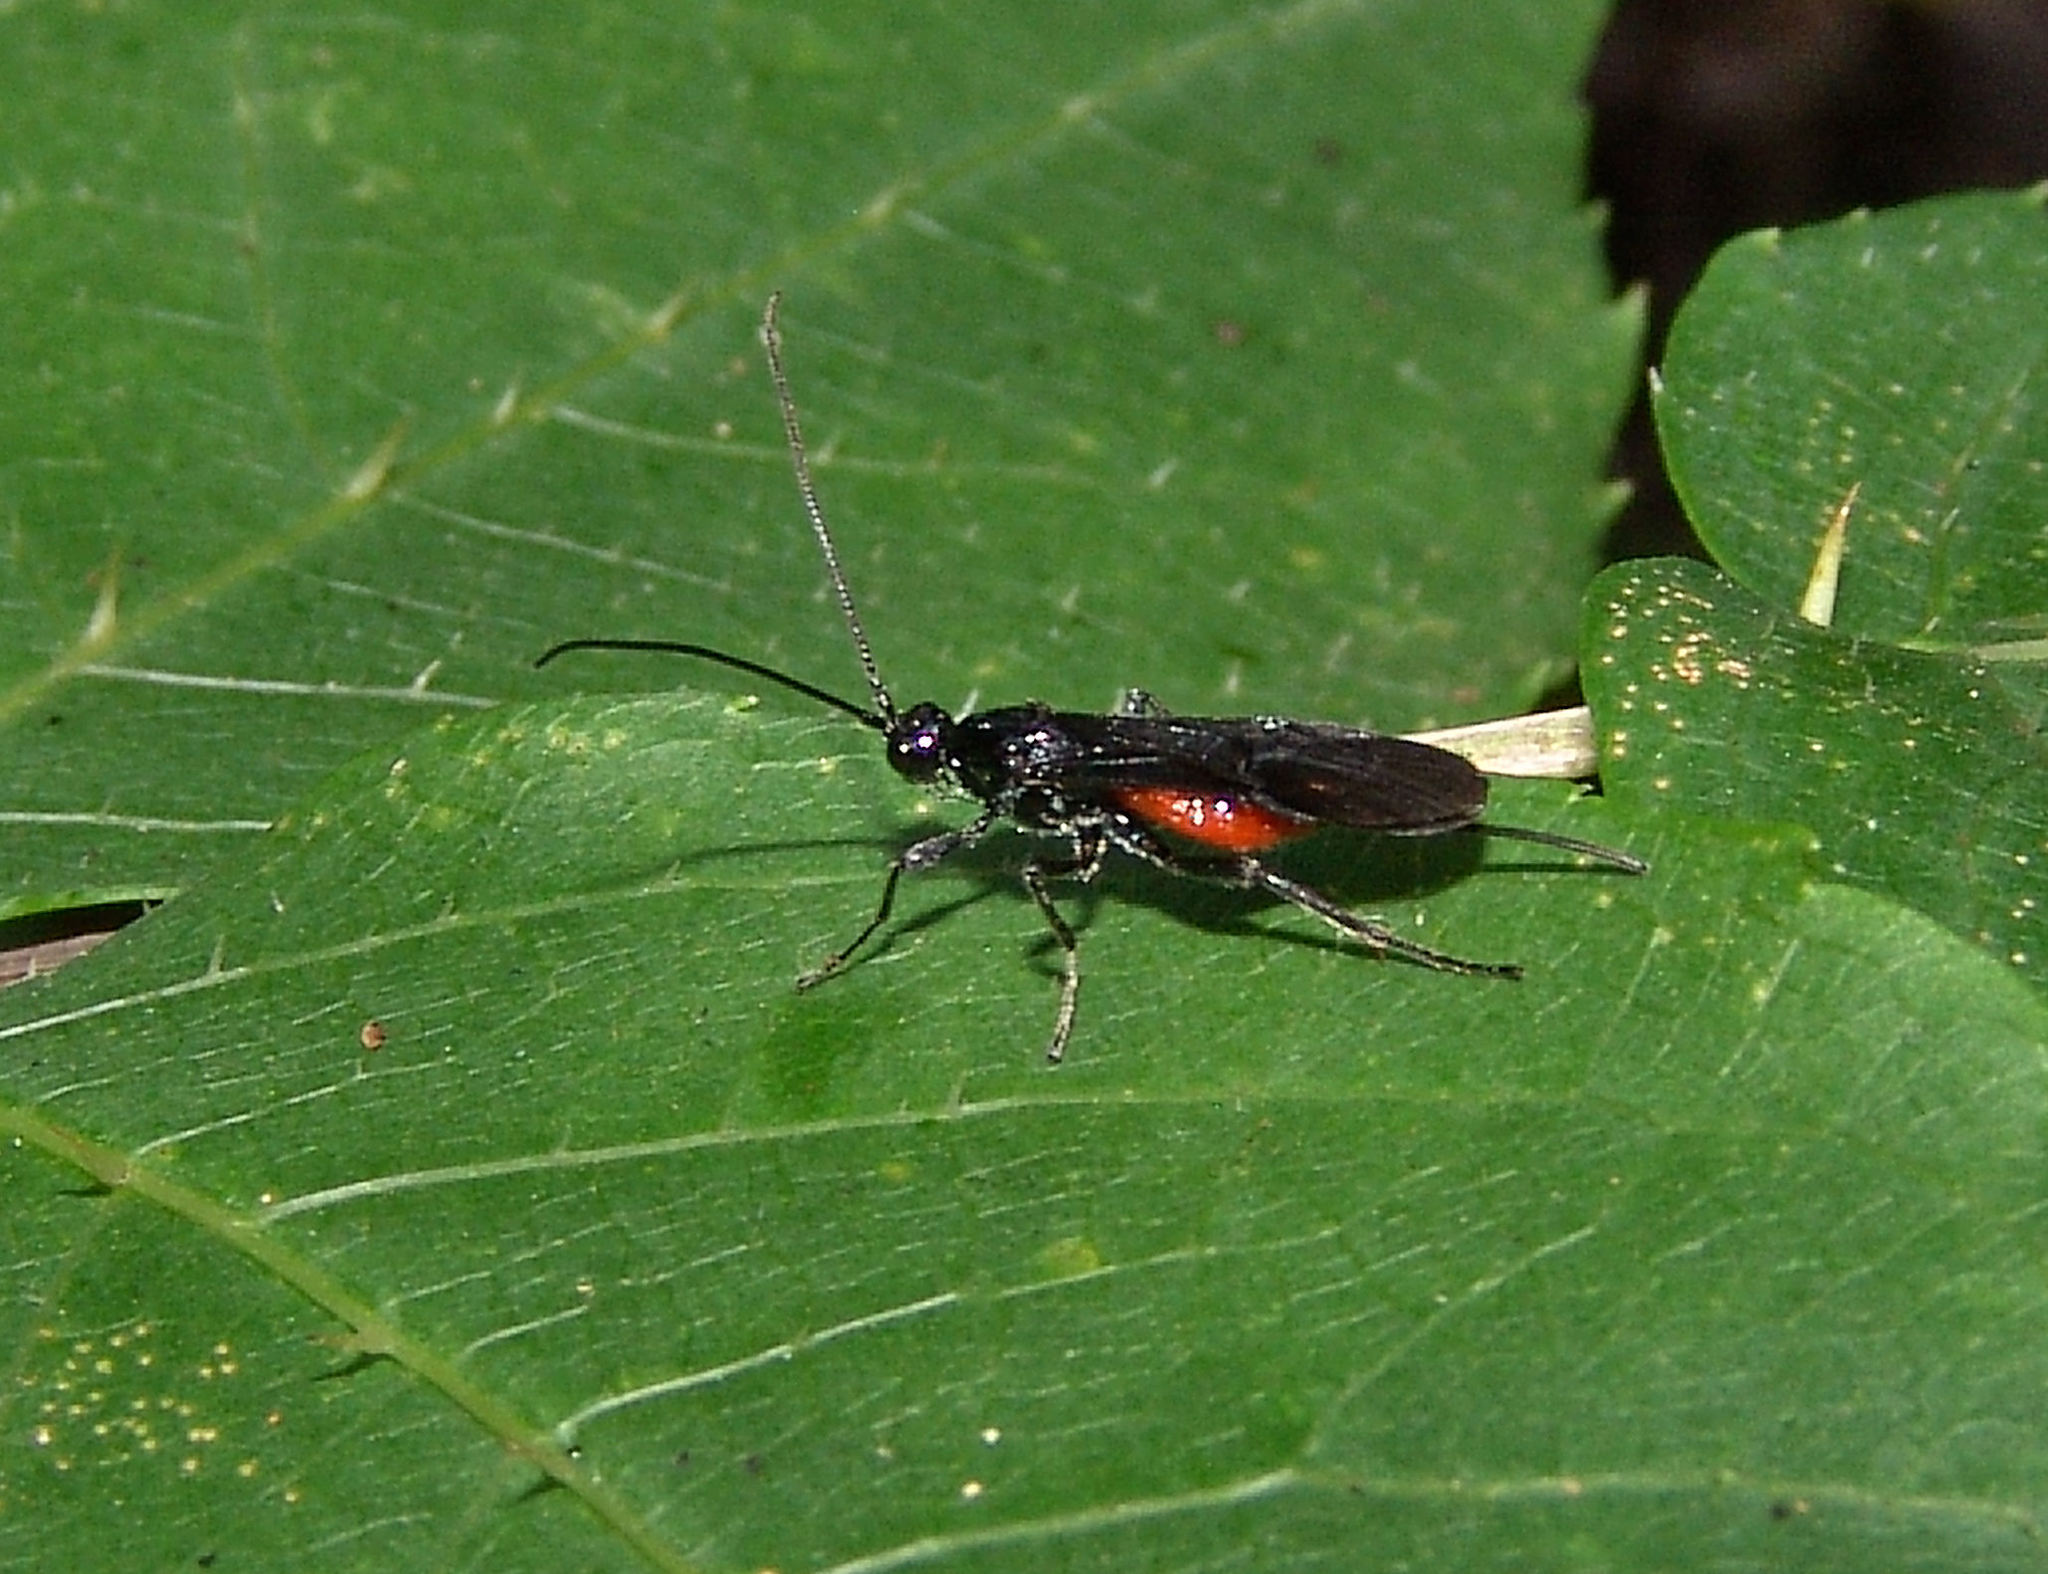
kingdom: Animalia
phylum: Arthropoda
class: Insecta
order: Hymenoptera
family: Braconidae
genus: Alabagrus
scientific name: Alabagrus texanus
